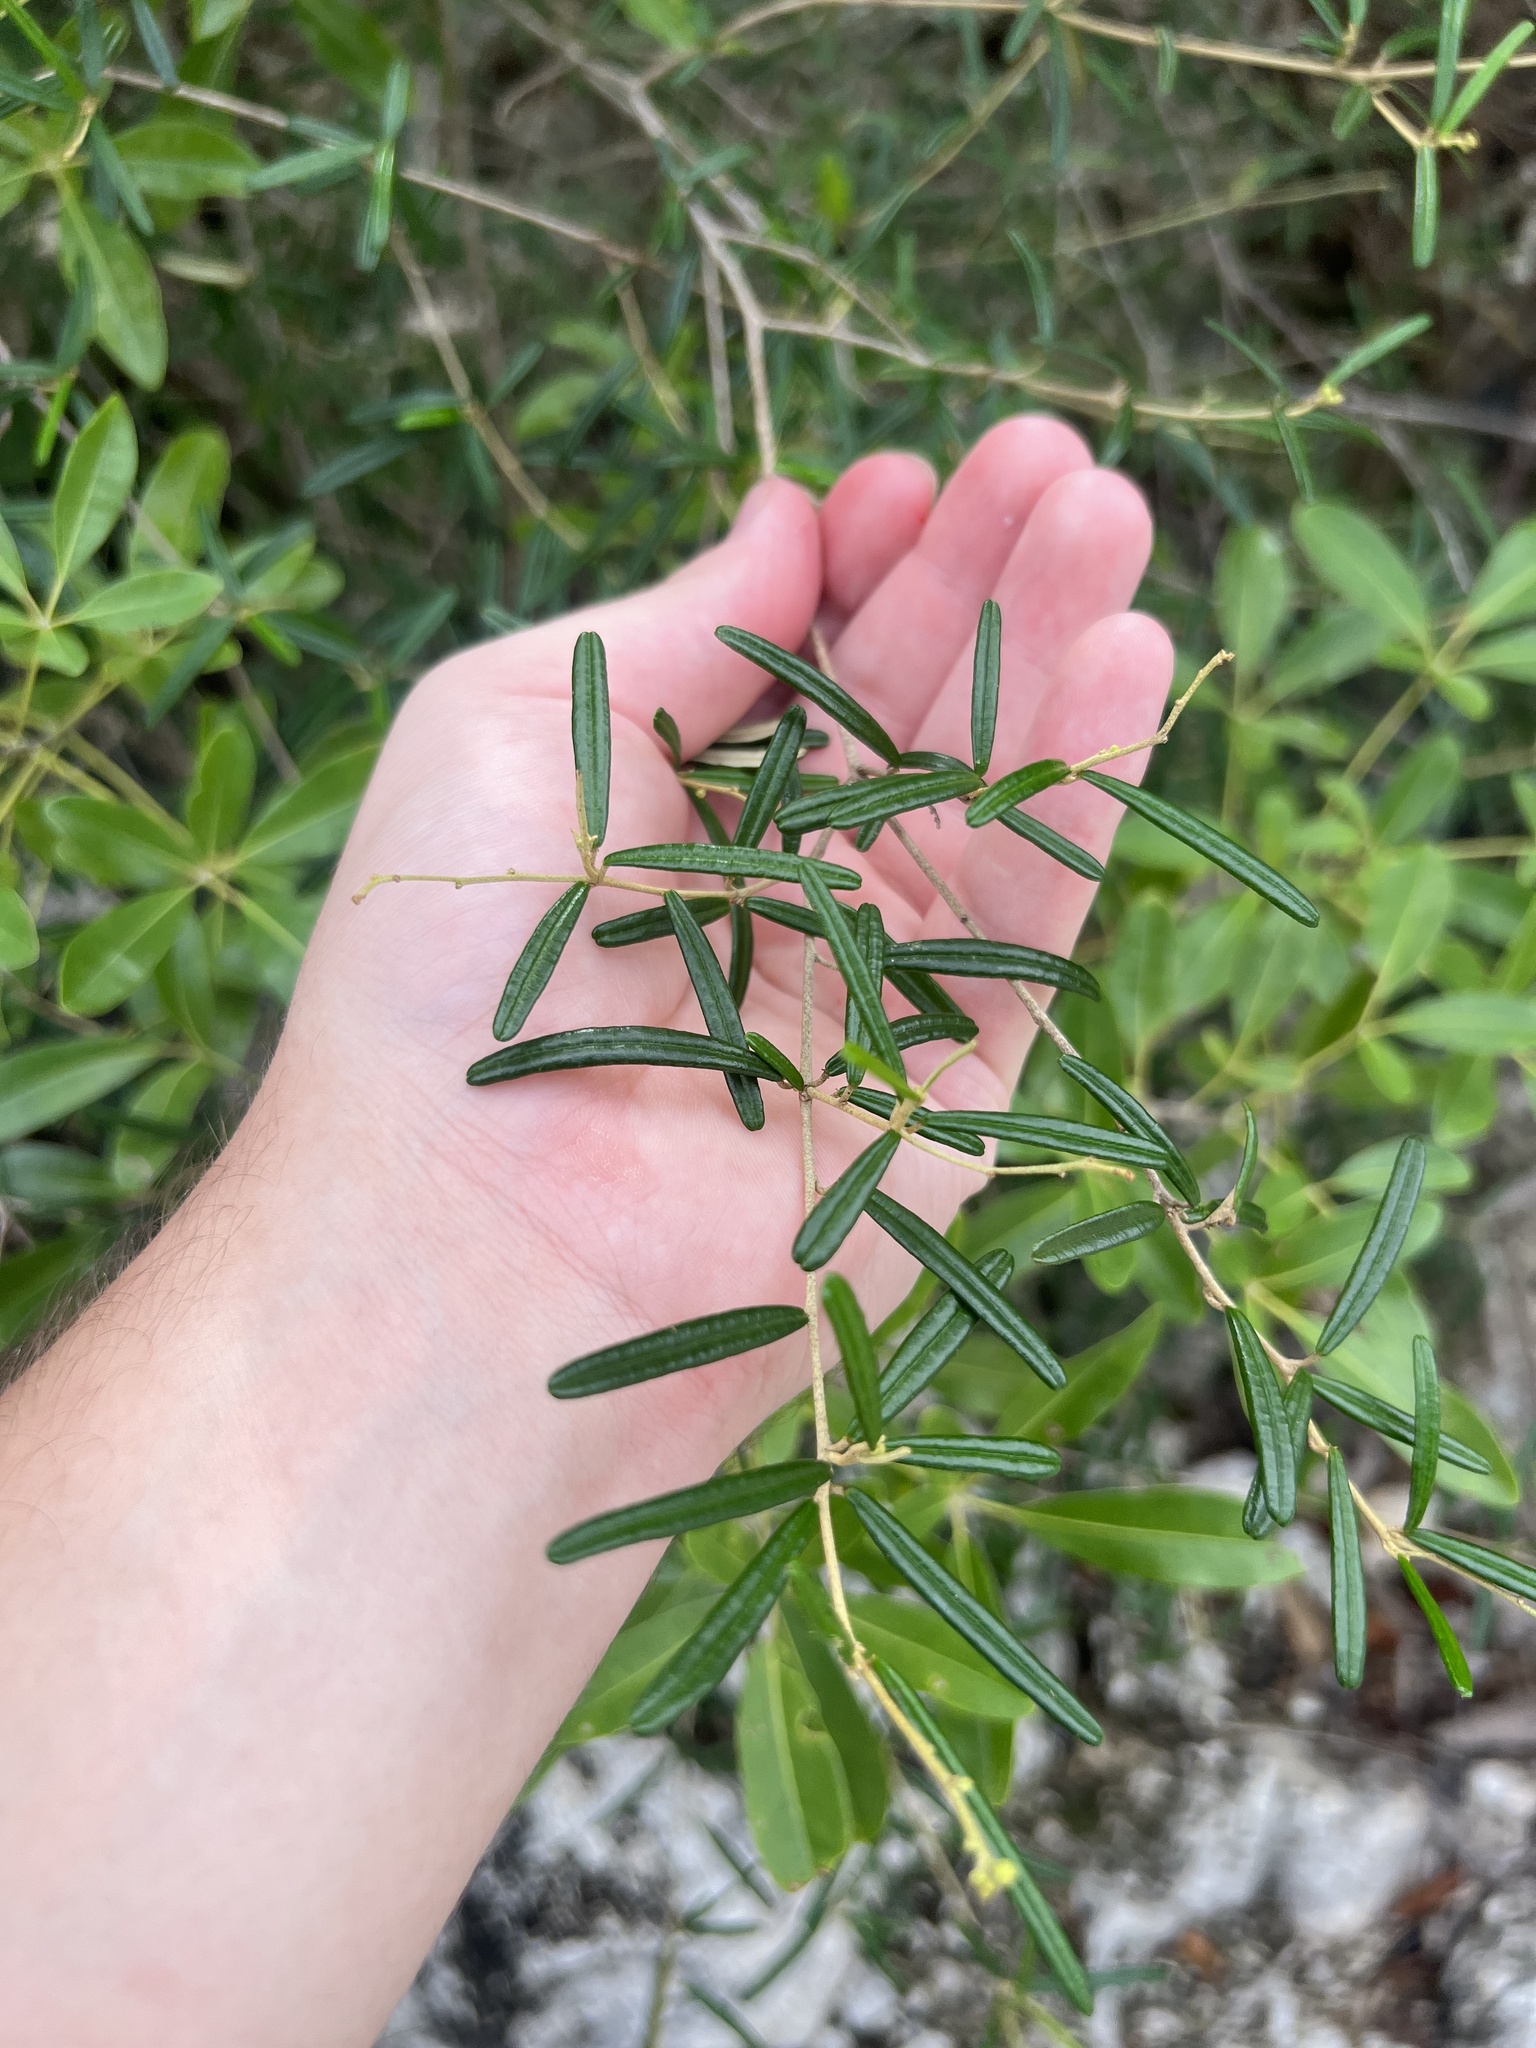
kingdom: Plantae
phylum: Tracheophyta
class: Magnoliopsida
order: Malpighiales
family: Euphorbiaceae
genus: Croton
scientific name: Croton linearis
